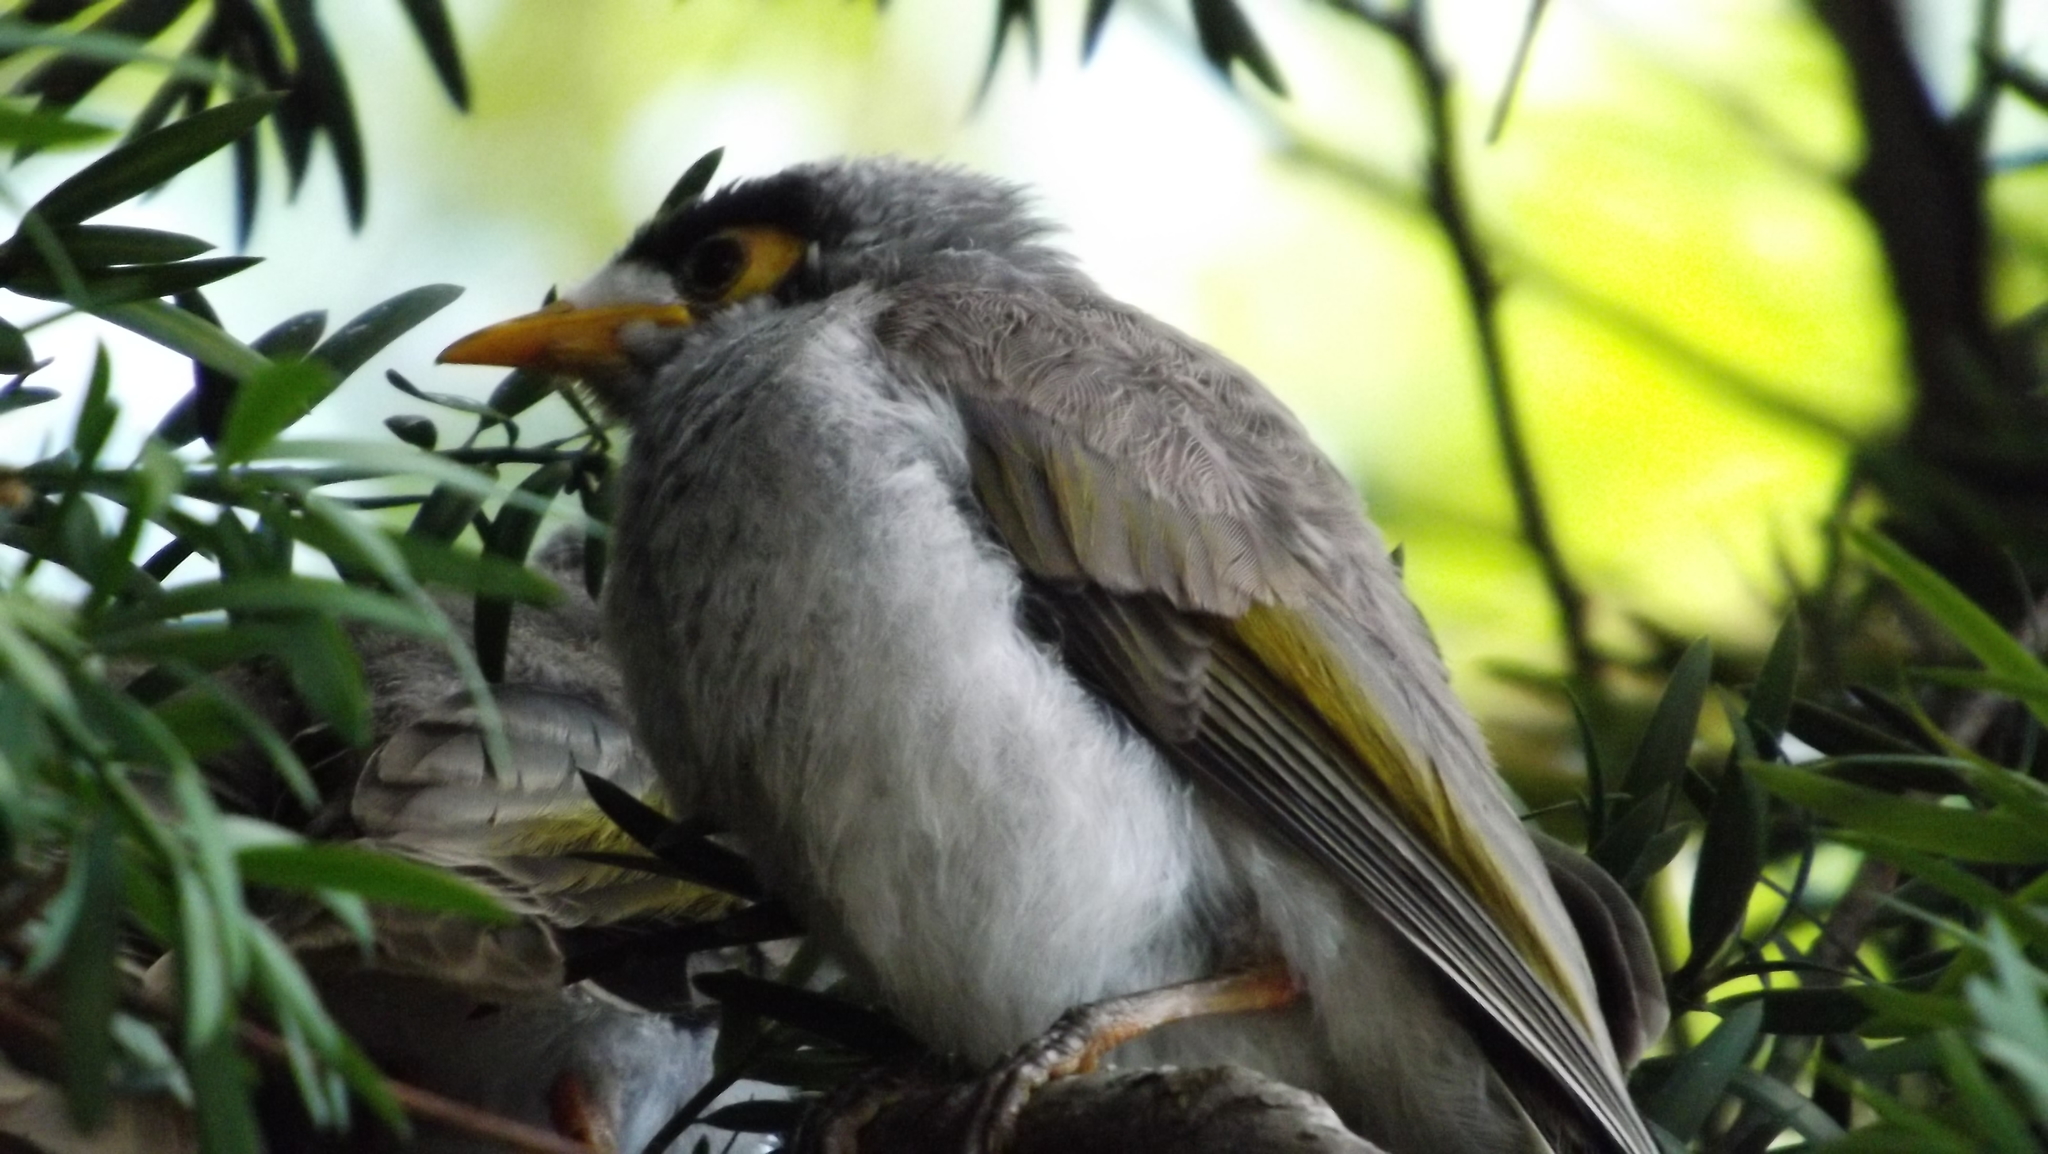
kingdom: Animalia
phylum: Chordata
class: Aves
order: Passeriformes
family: Meliphagidae
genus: Manorina
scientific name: Manorina melanocephala
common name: Noisy miner
